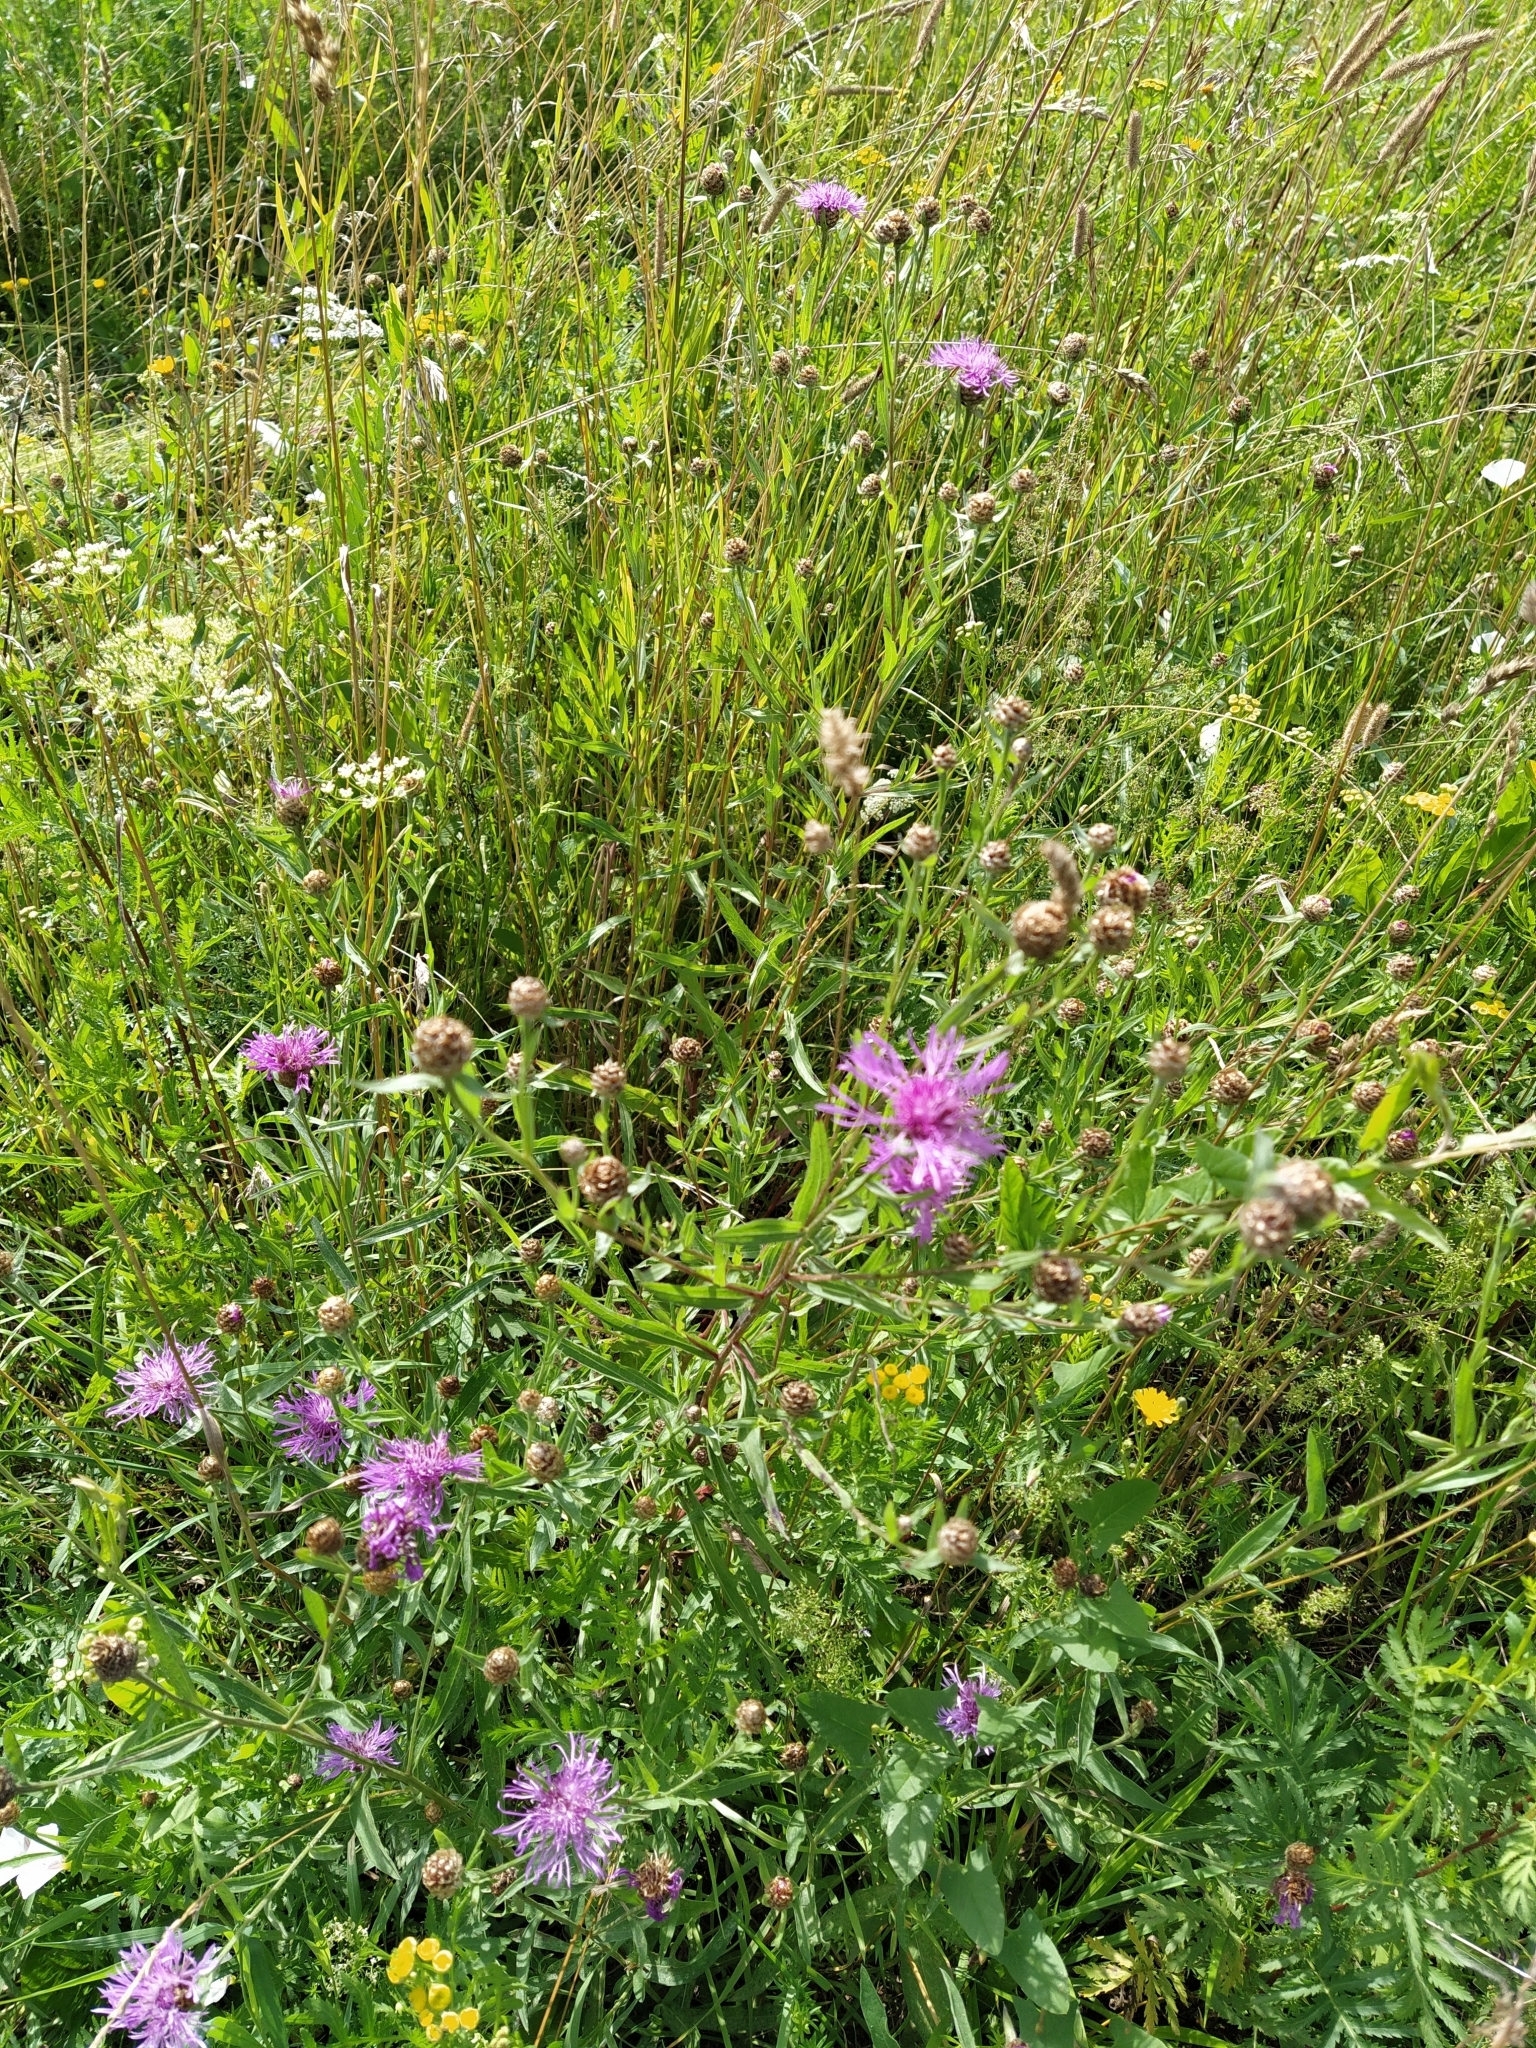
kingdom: Plantae
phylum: Tracheophyta
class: Magnoliopsida
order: Asterales
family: Asteraceae
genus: Centaurea
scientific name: Centaurea jacea
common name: Brown knapweed
